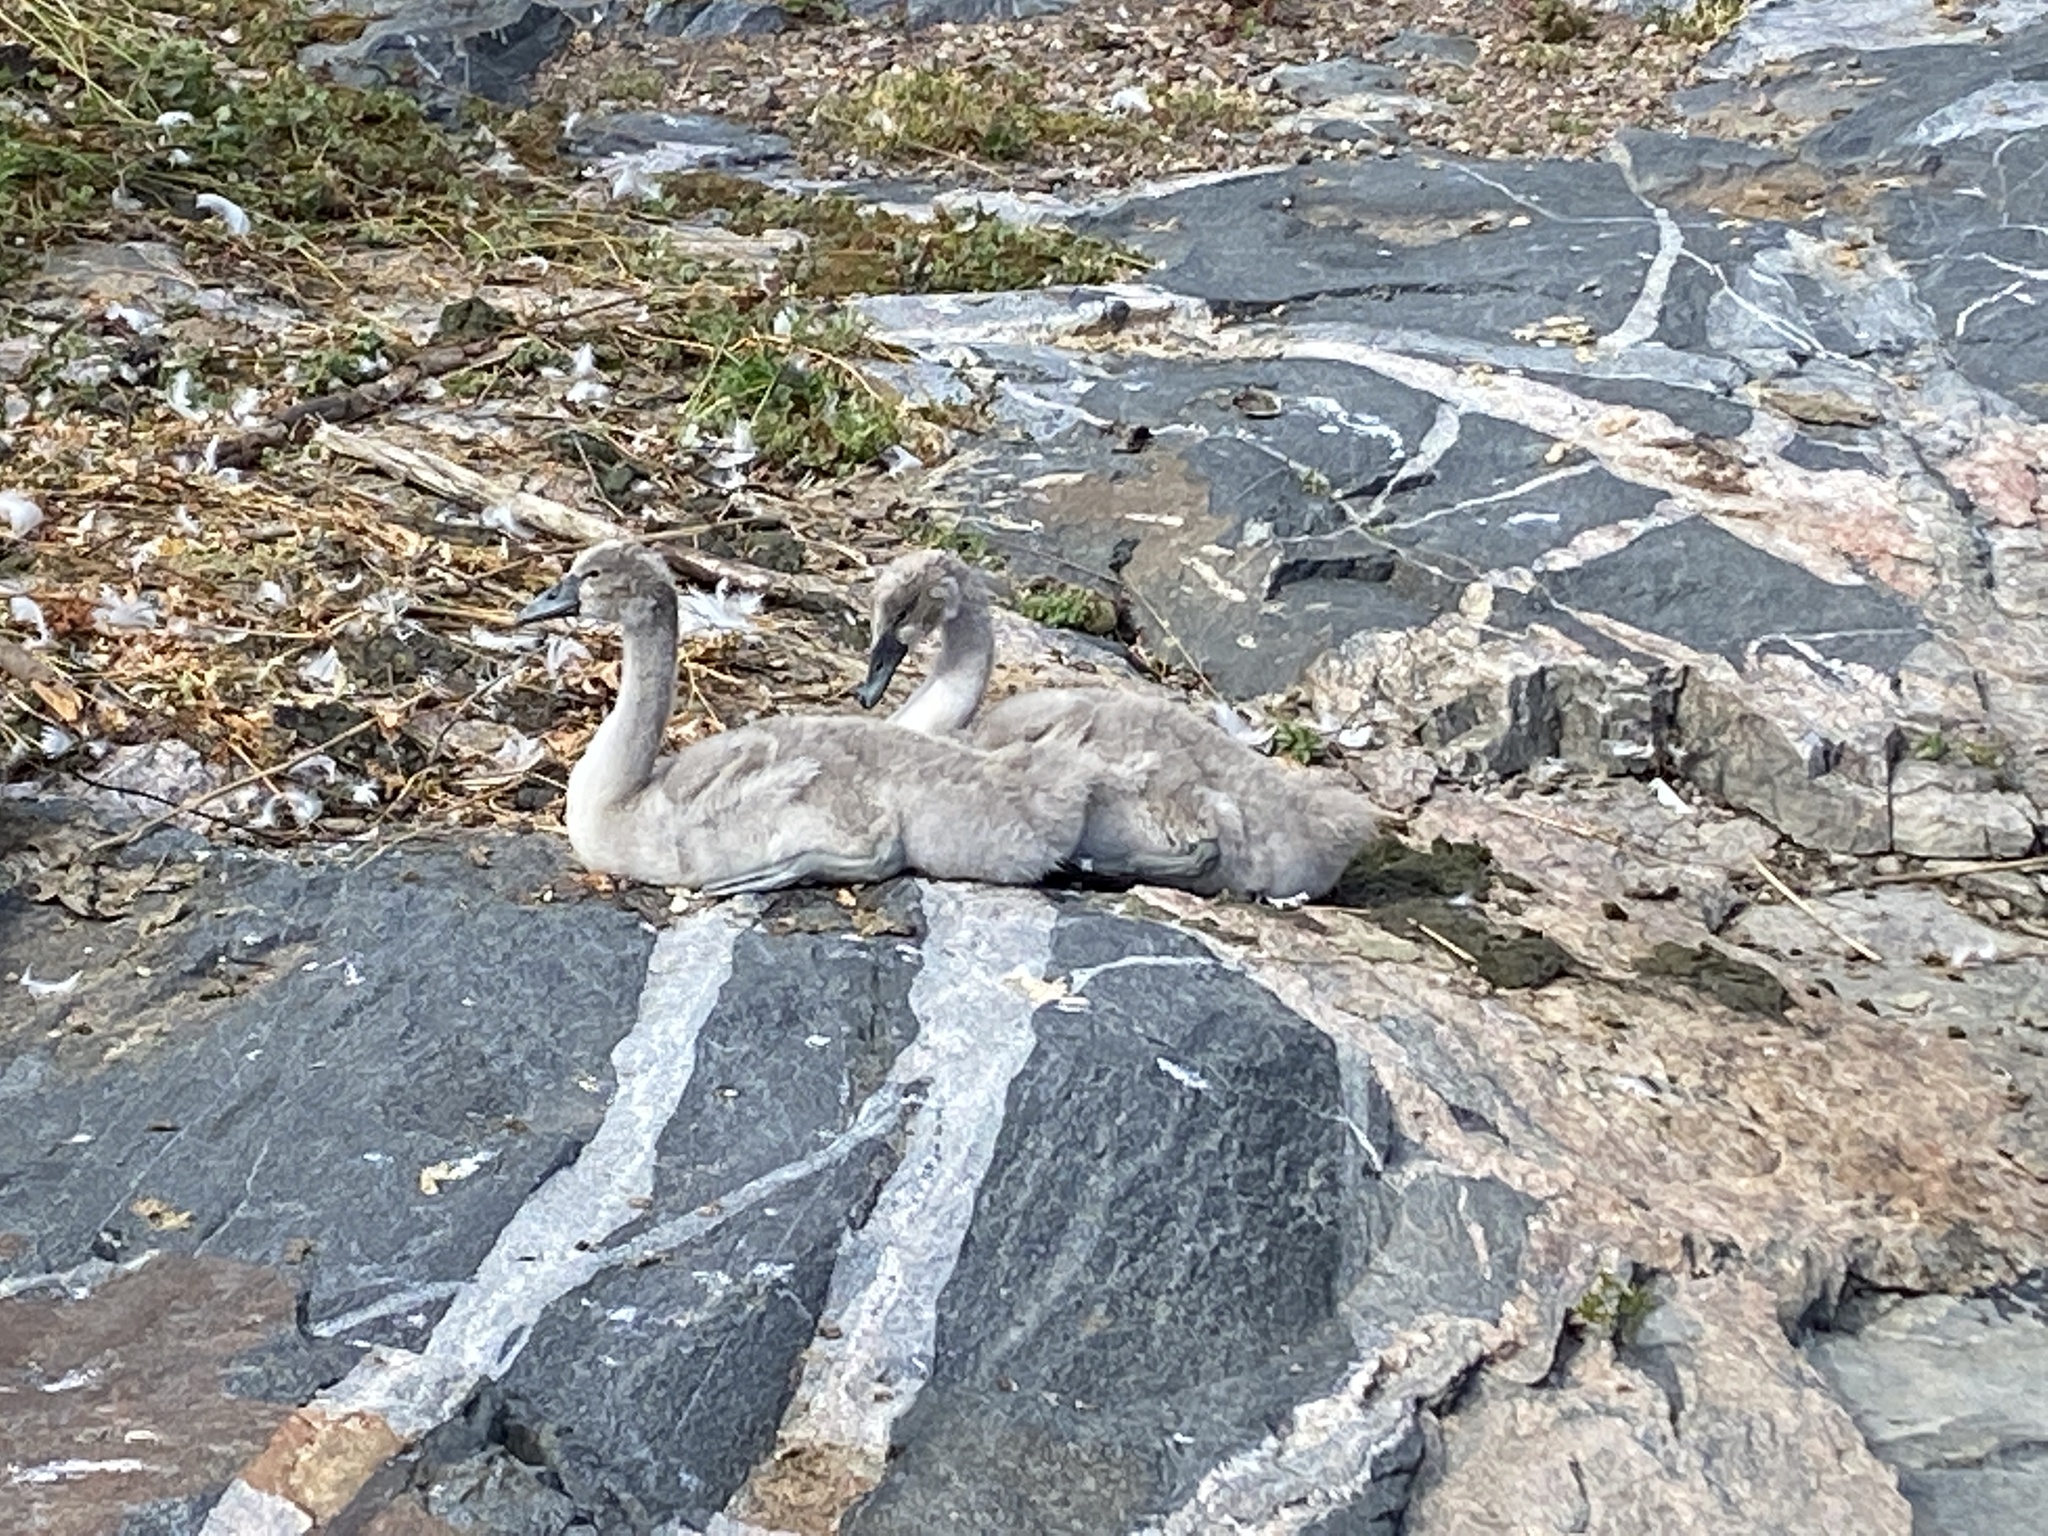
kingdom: Animalia
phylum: Chordata
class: Aves
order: Anseriformes
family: Anatidae
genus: Cygnus
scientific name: Cygnus olor
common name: Mute swan
